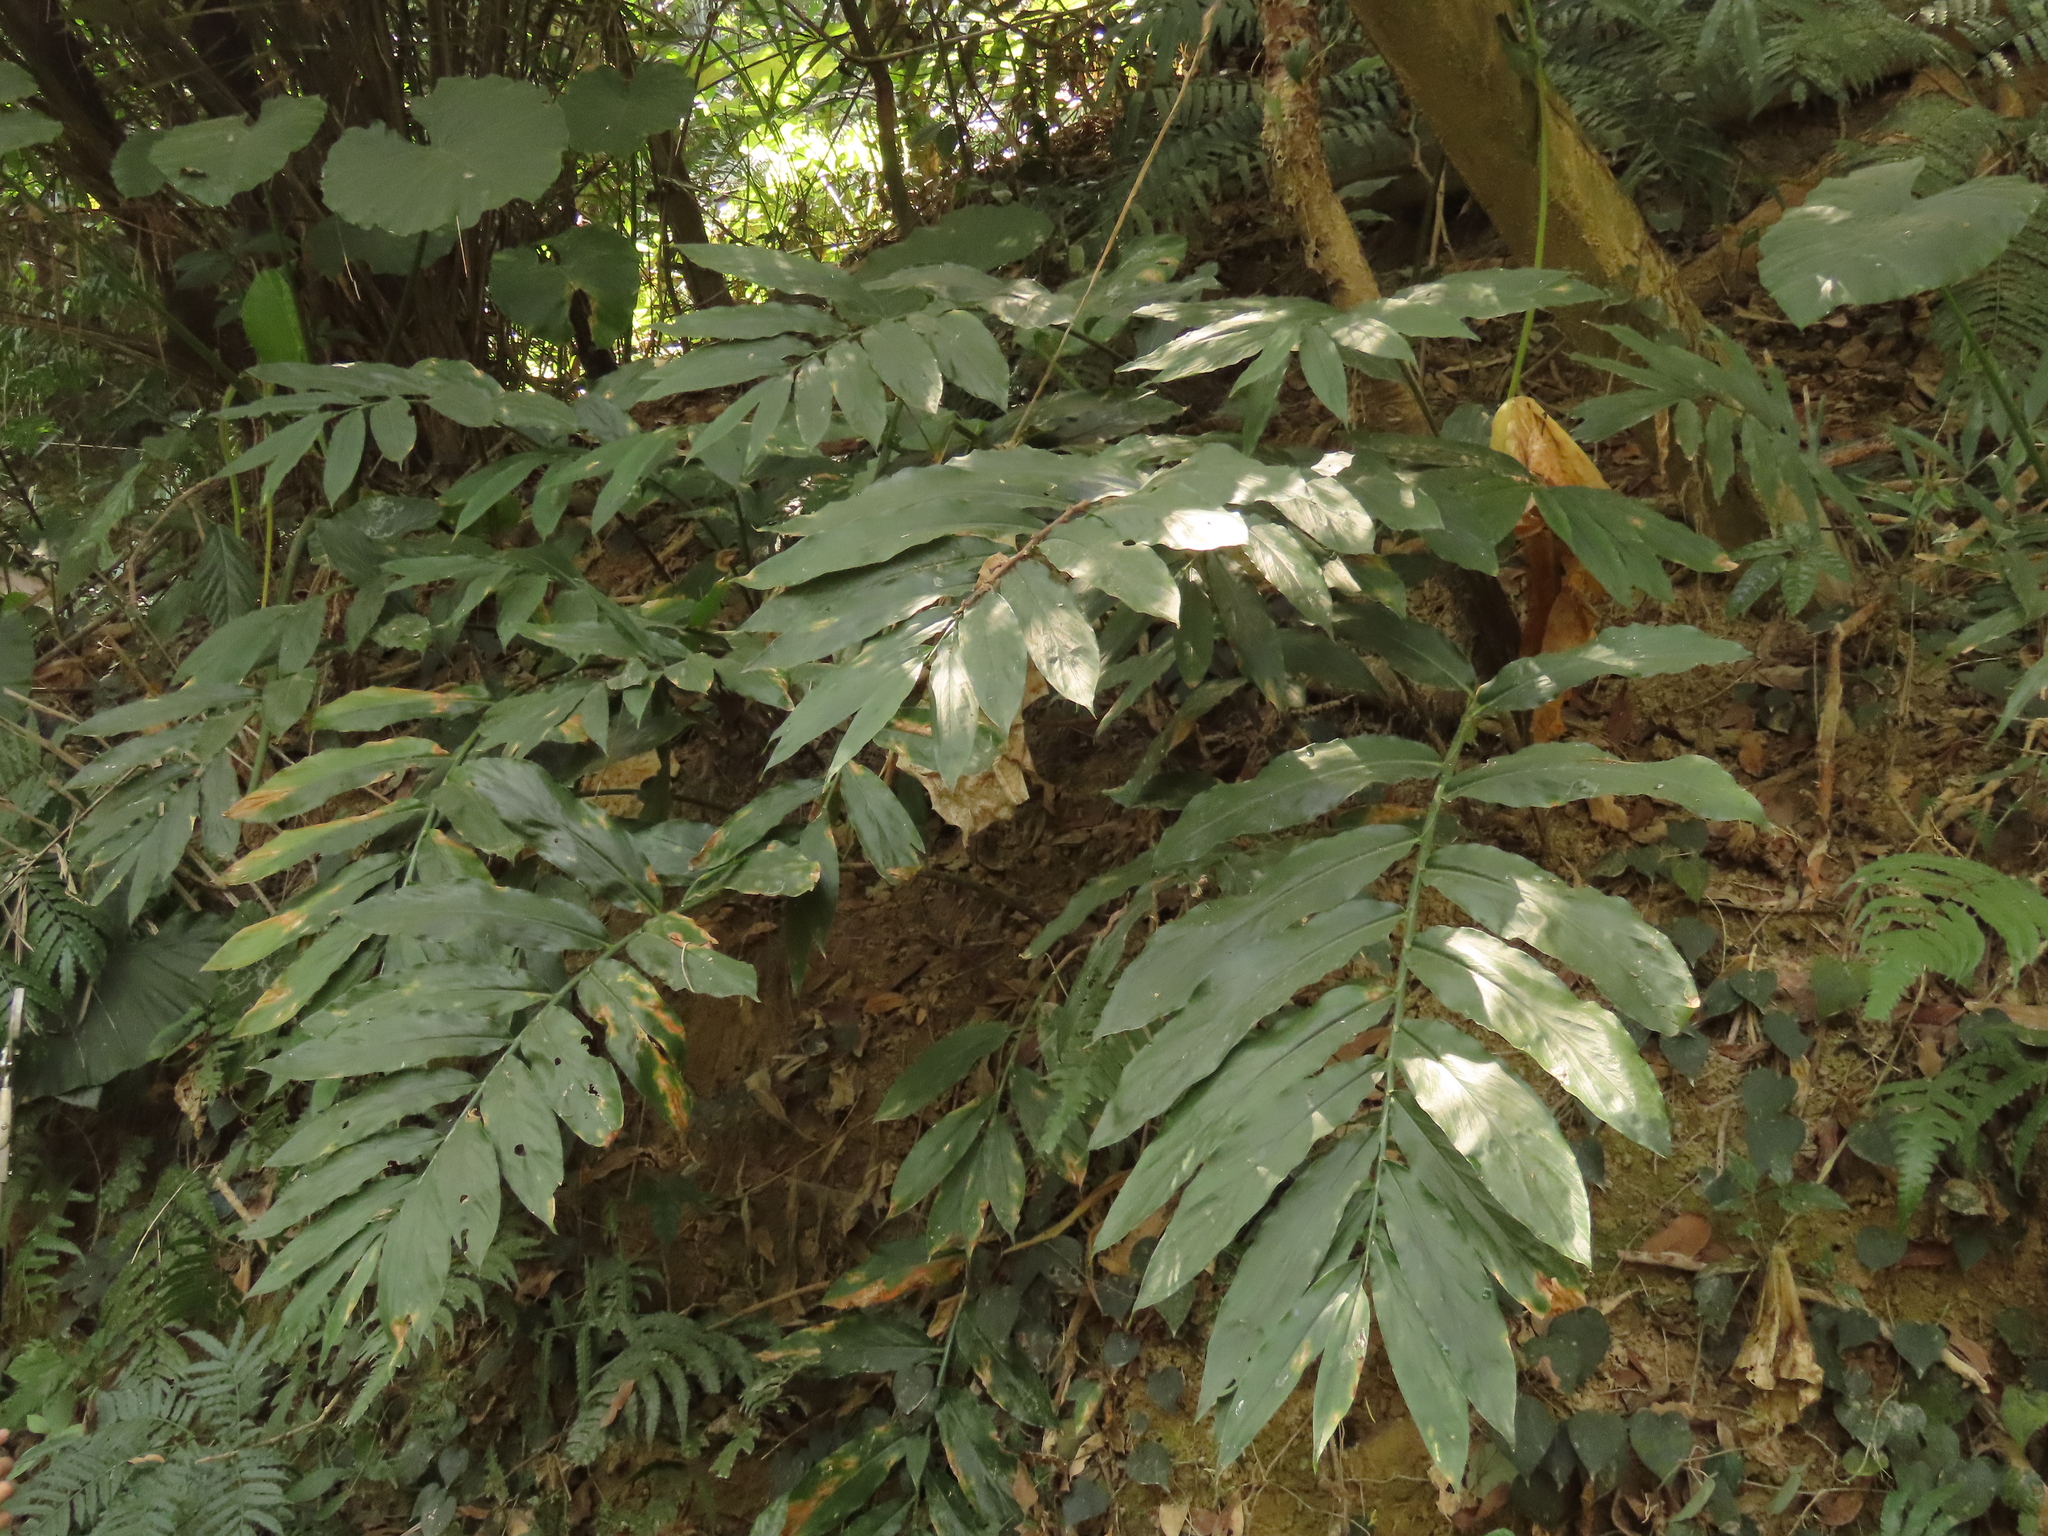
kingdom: Plantae
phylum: Tracheophyta
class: Liliopsida
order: Zingiberales
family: Zingiberaceae
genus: Zingiber
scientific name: Zingiber kawagoii
